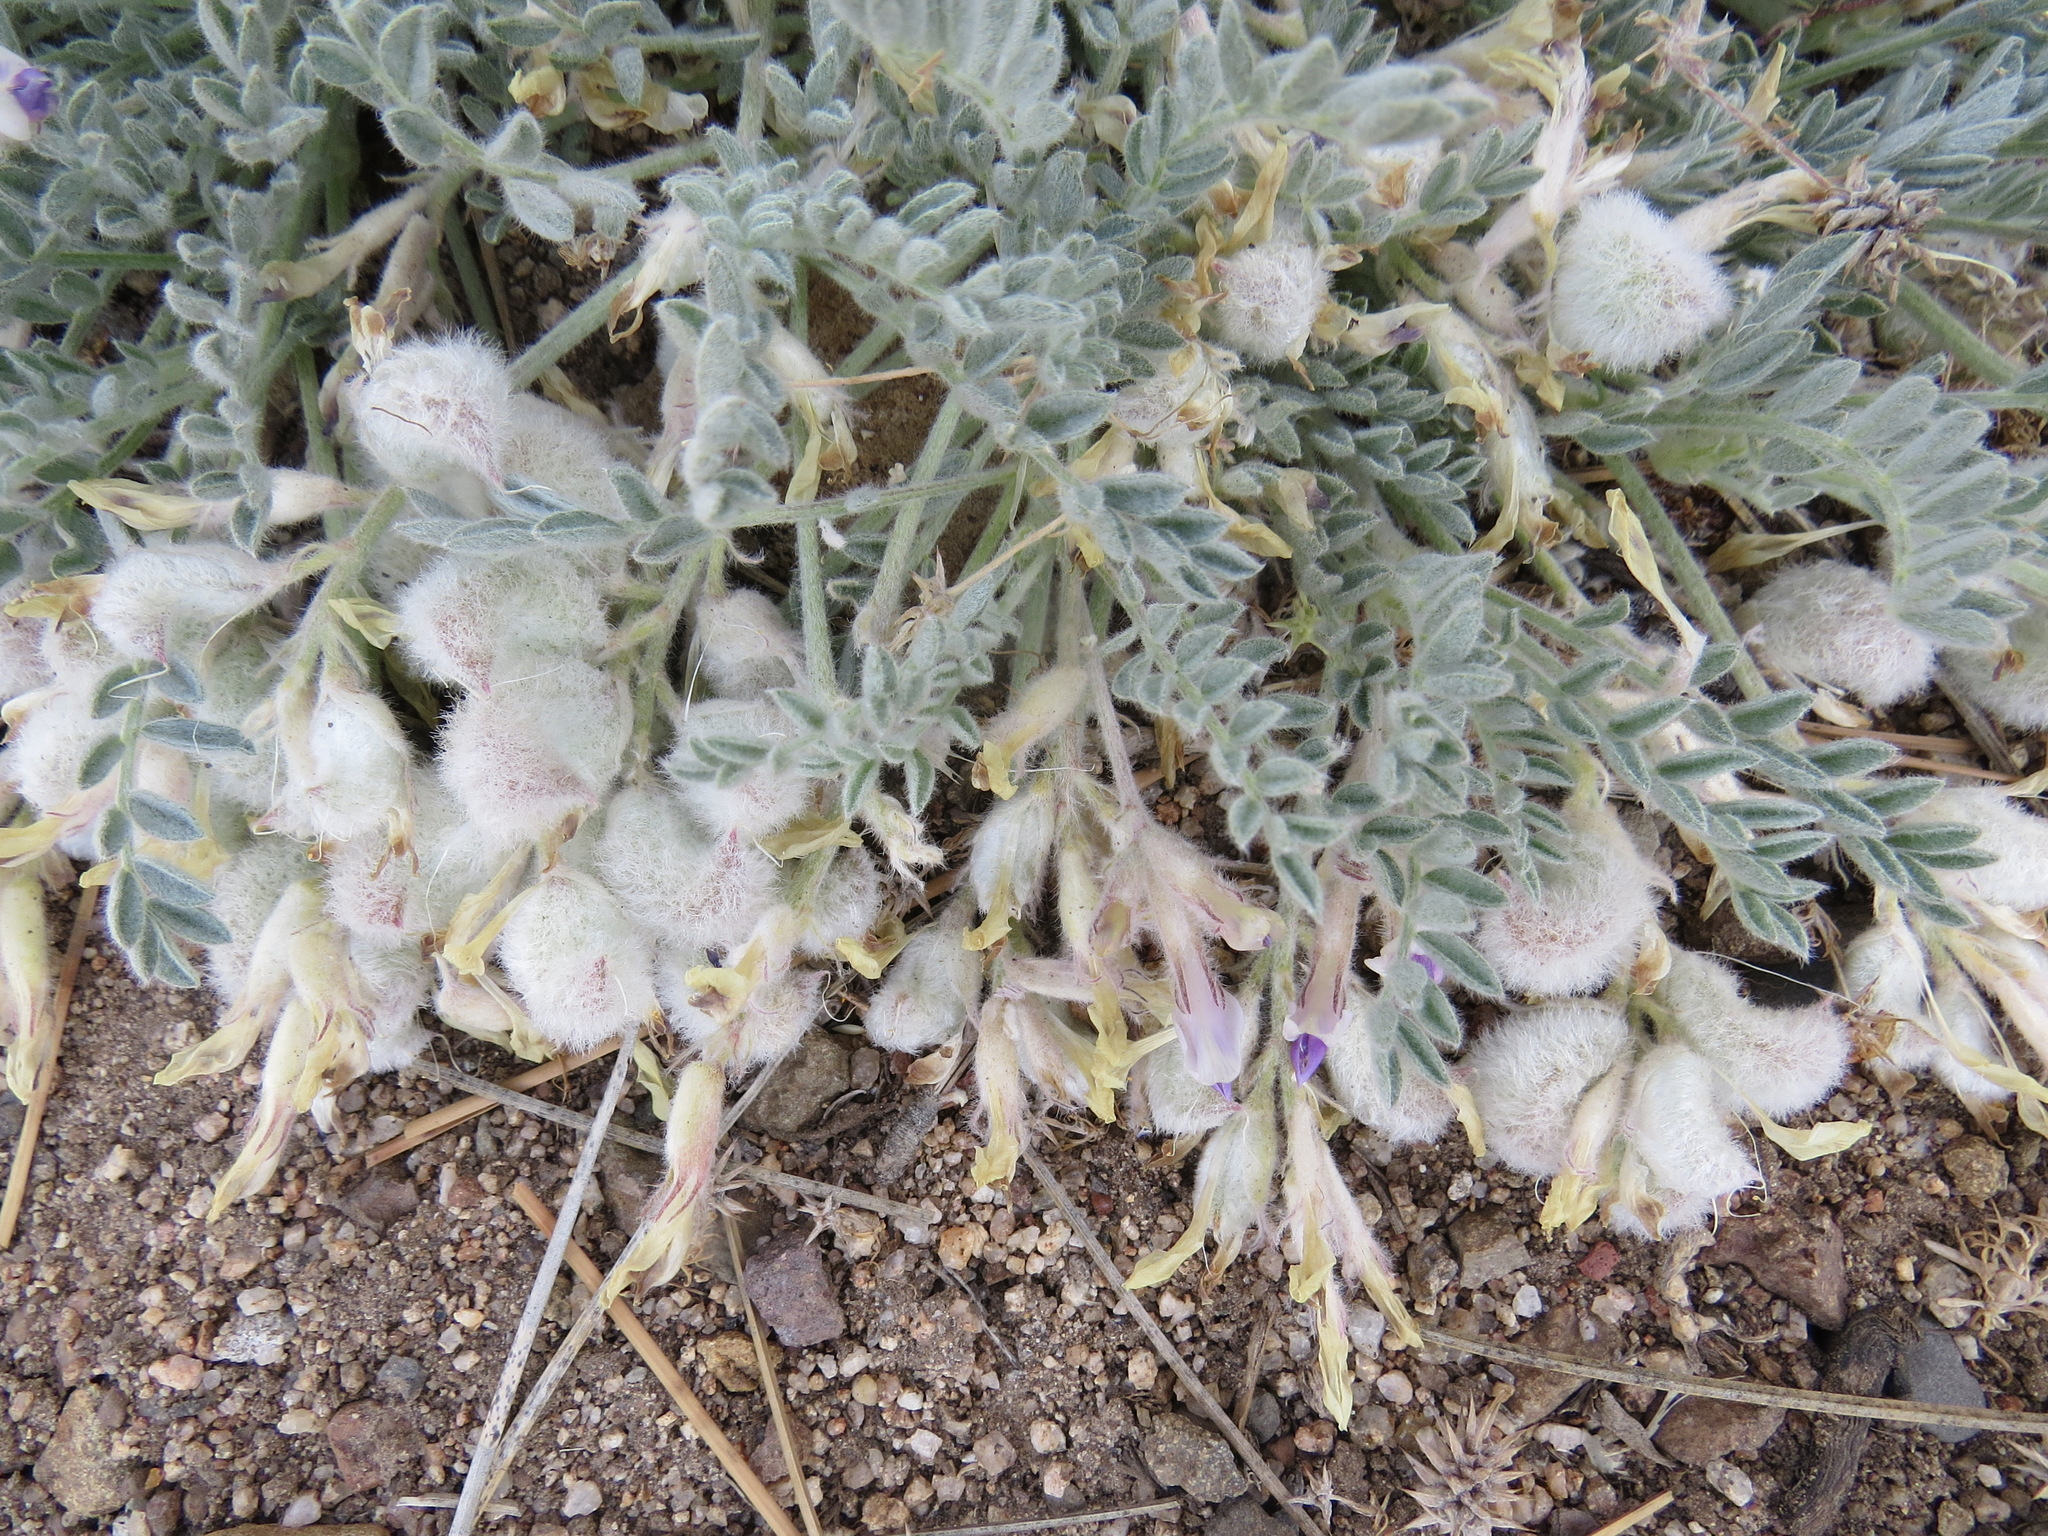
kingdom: Plantae
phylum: Tracheophyta
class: Magnoliopsida
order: Fabales
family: Fabaceae
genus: Astragalus
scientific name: Astragalus purshii
